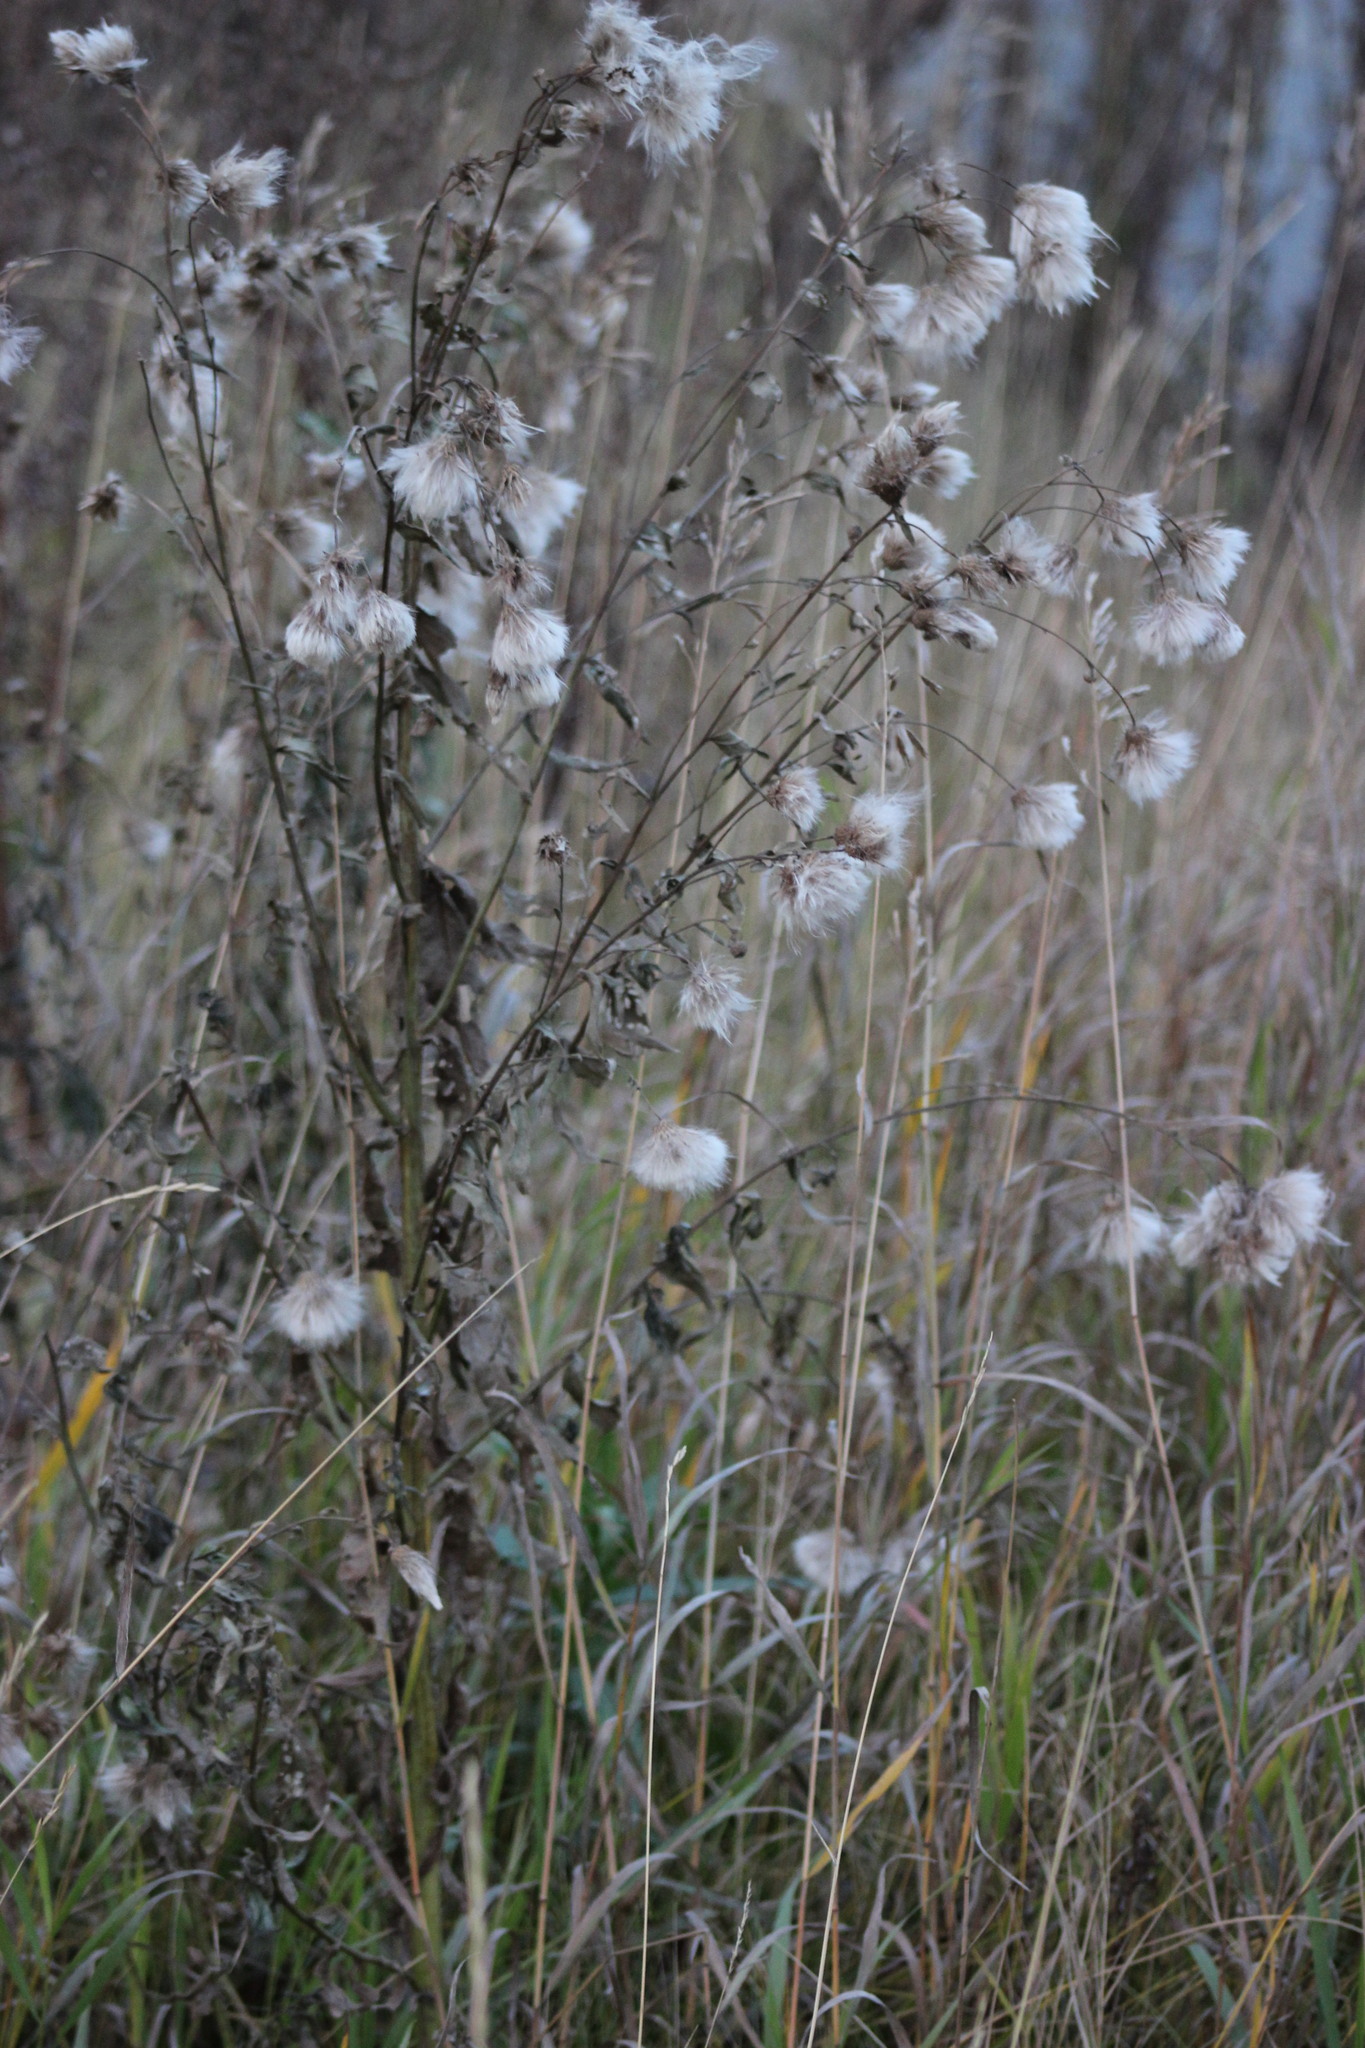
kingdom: Plantae
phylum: Tracheophyta
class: Magnoliopsida
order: Asterales
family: Asteraceae
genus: Cirsium
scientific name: Cirsium arvense
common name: Creeping thistle
